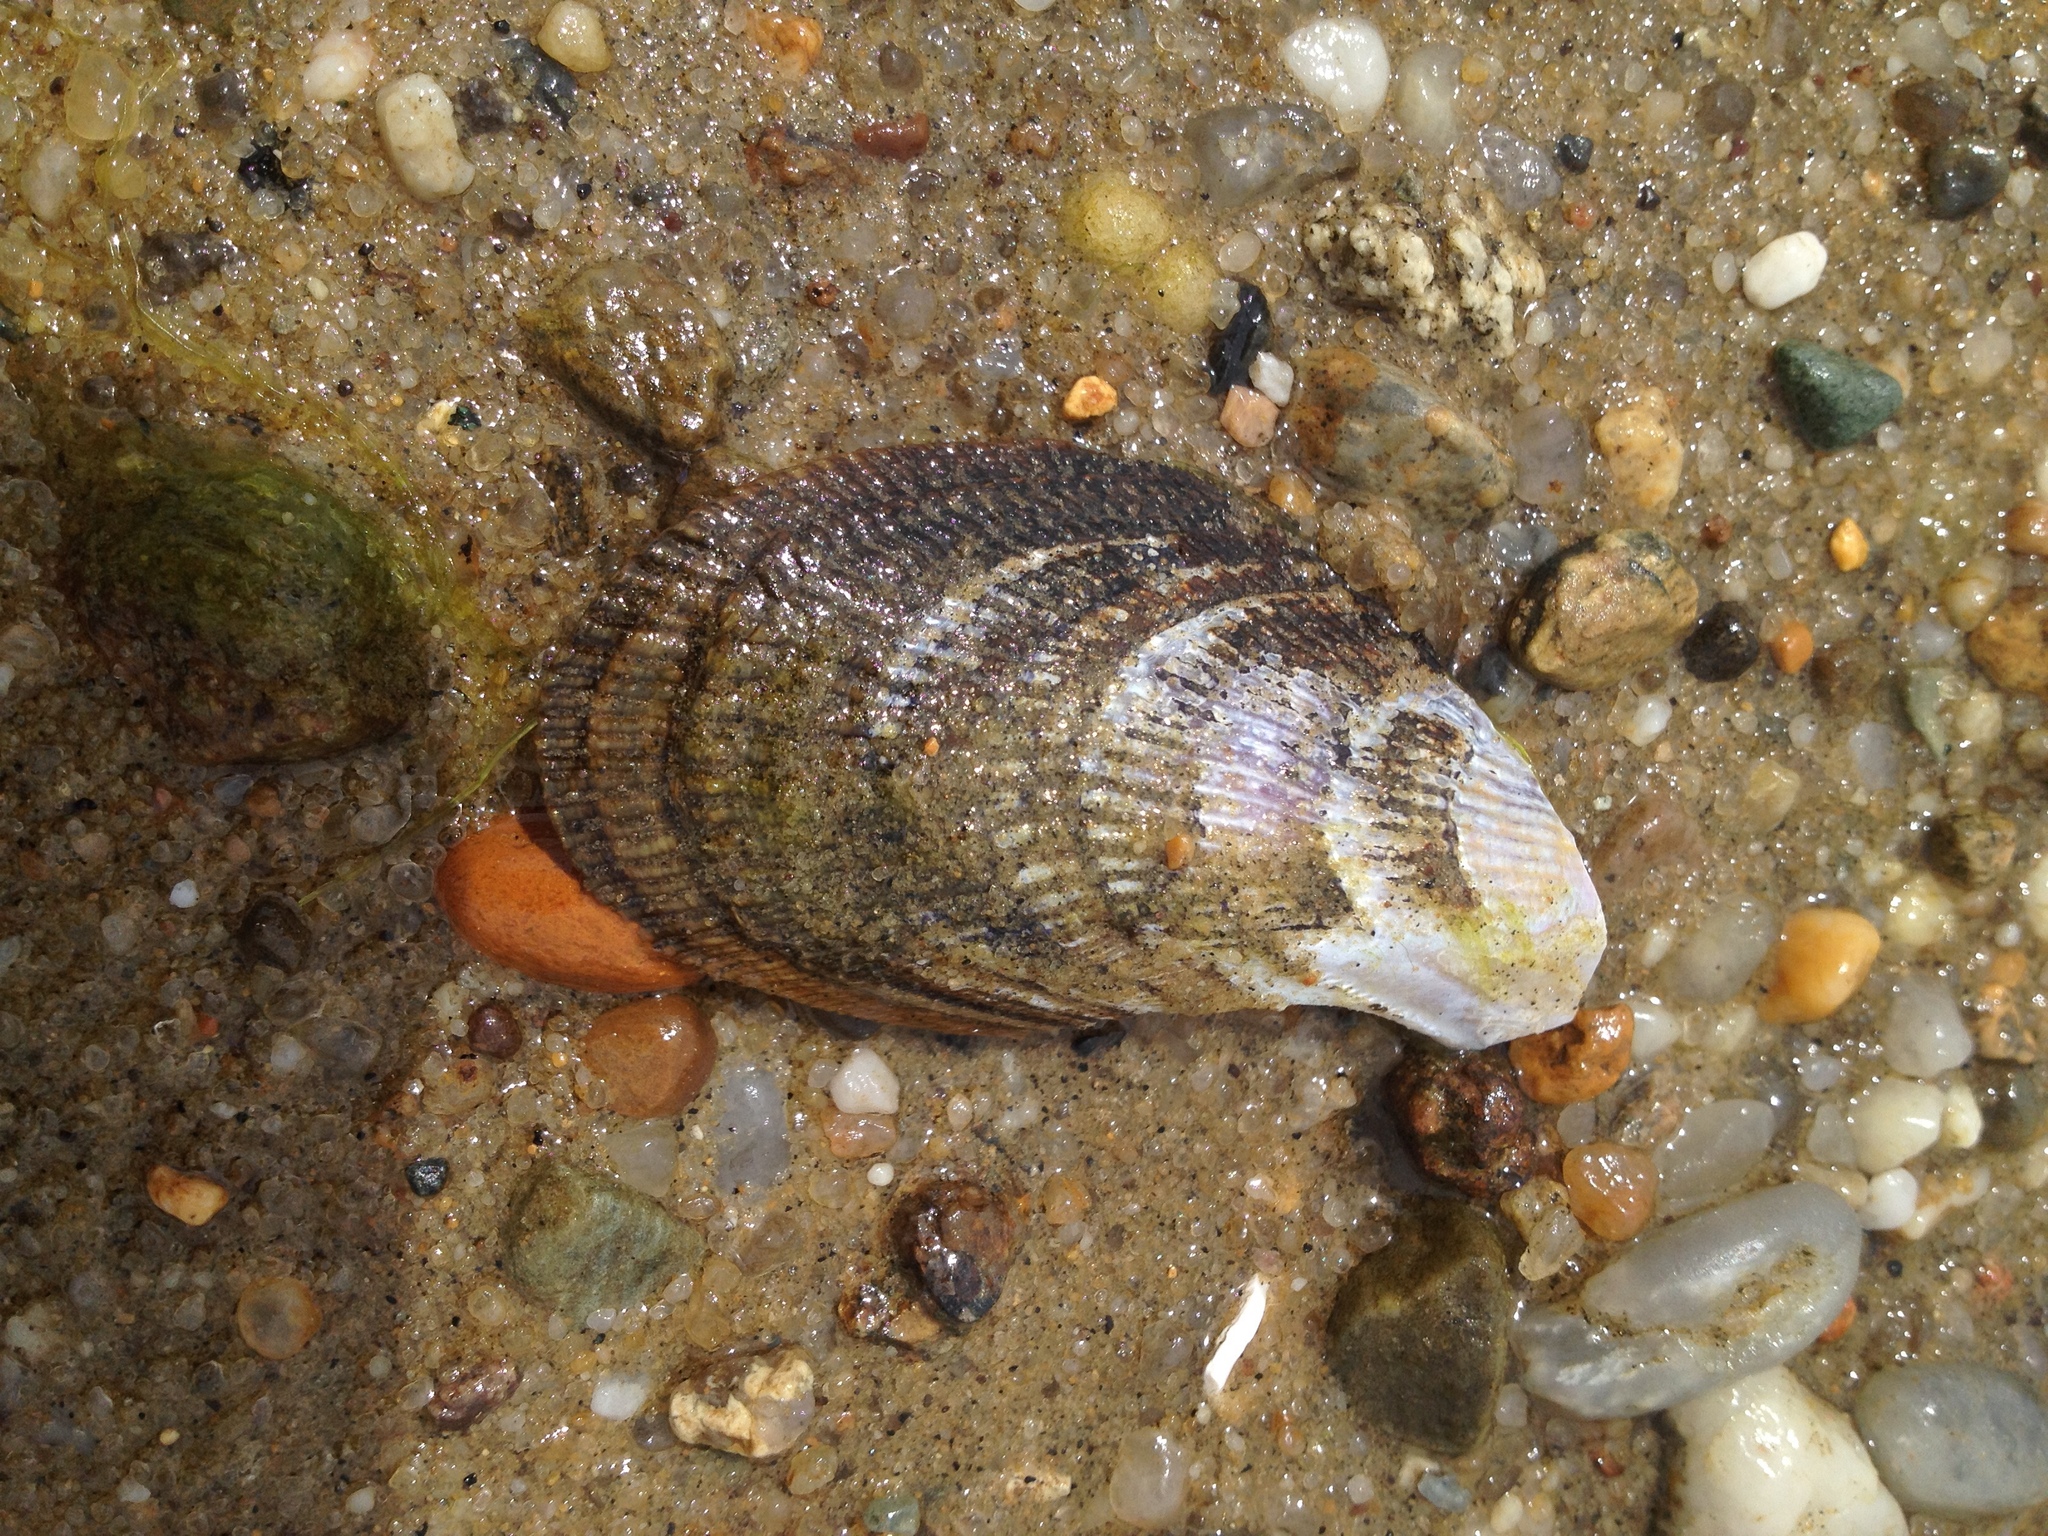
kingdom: Animalia
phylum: Mollusca
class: Bivalvia
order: Mytilida
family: Mytilidae
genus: Geukensia
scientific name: Geukensia demissa
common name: Ribbed mussel
